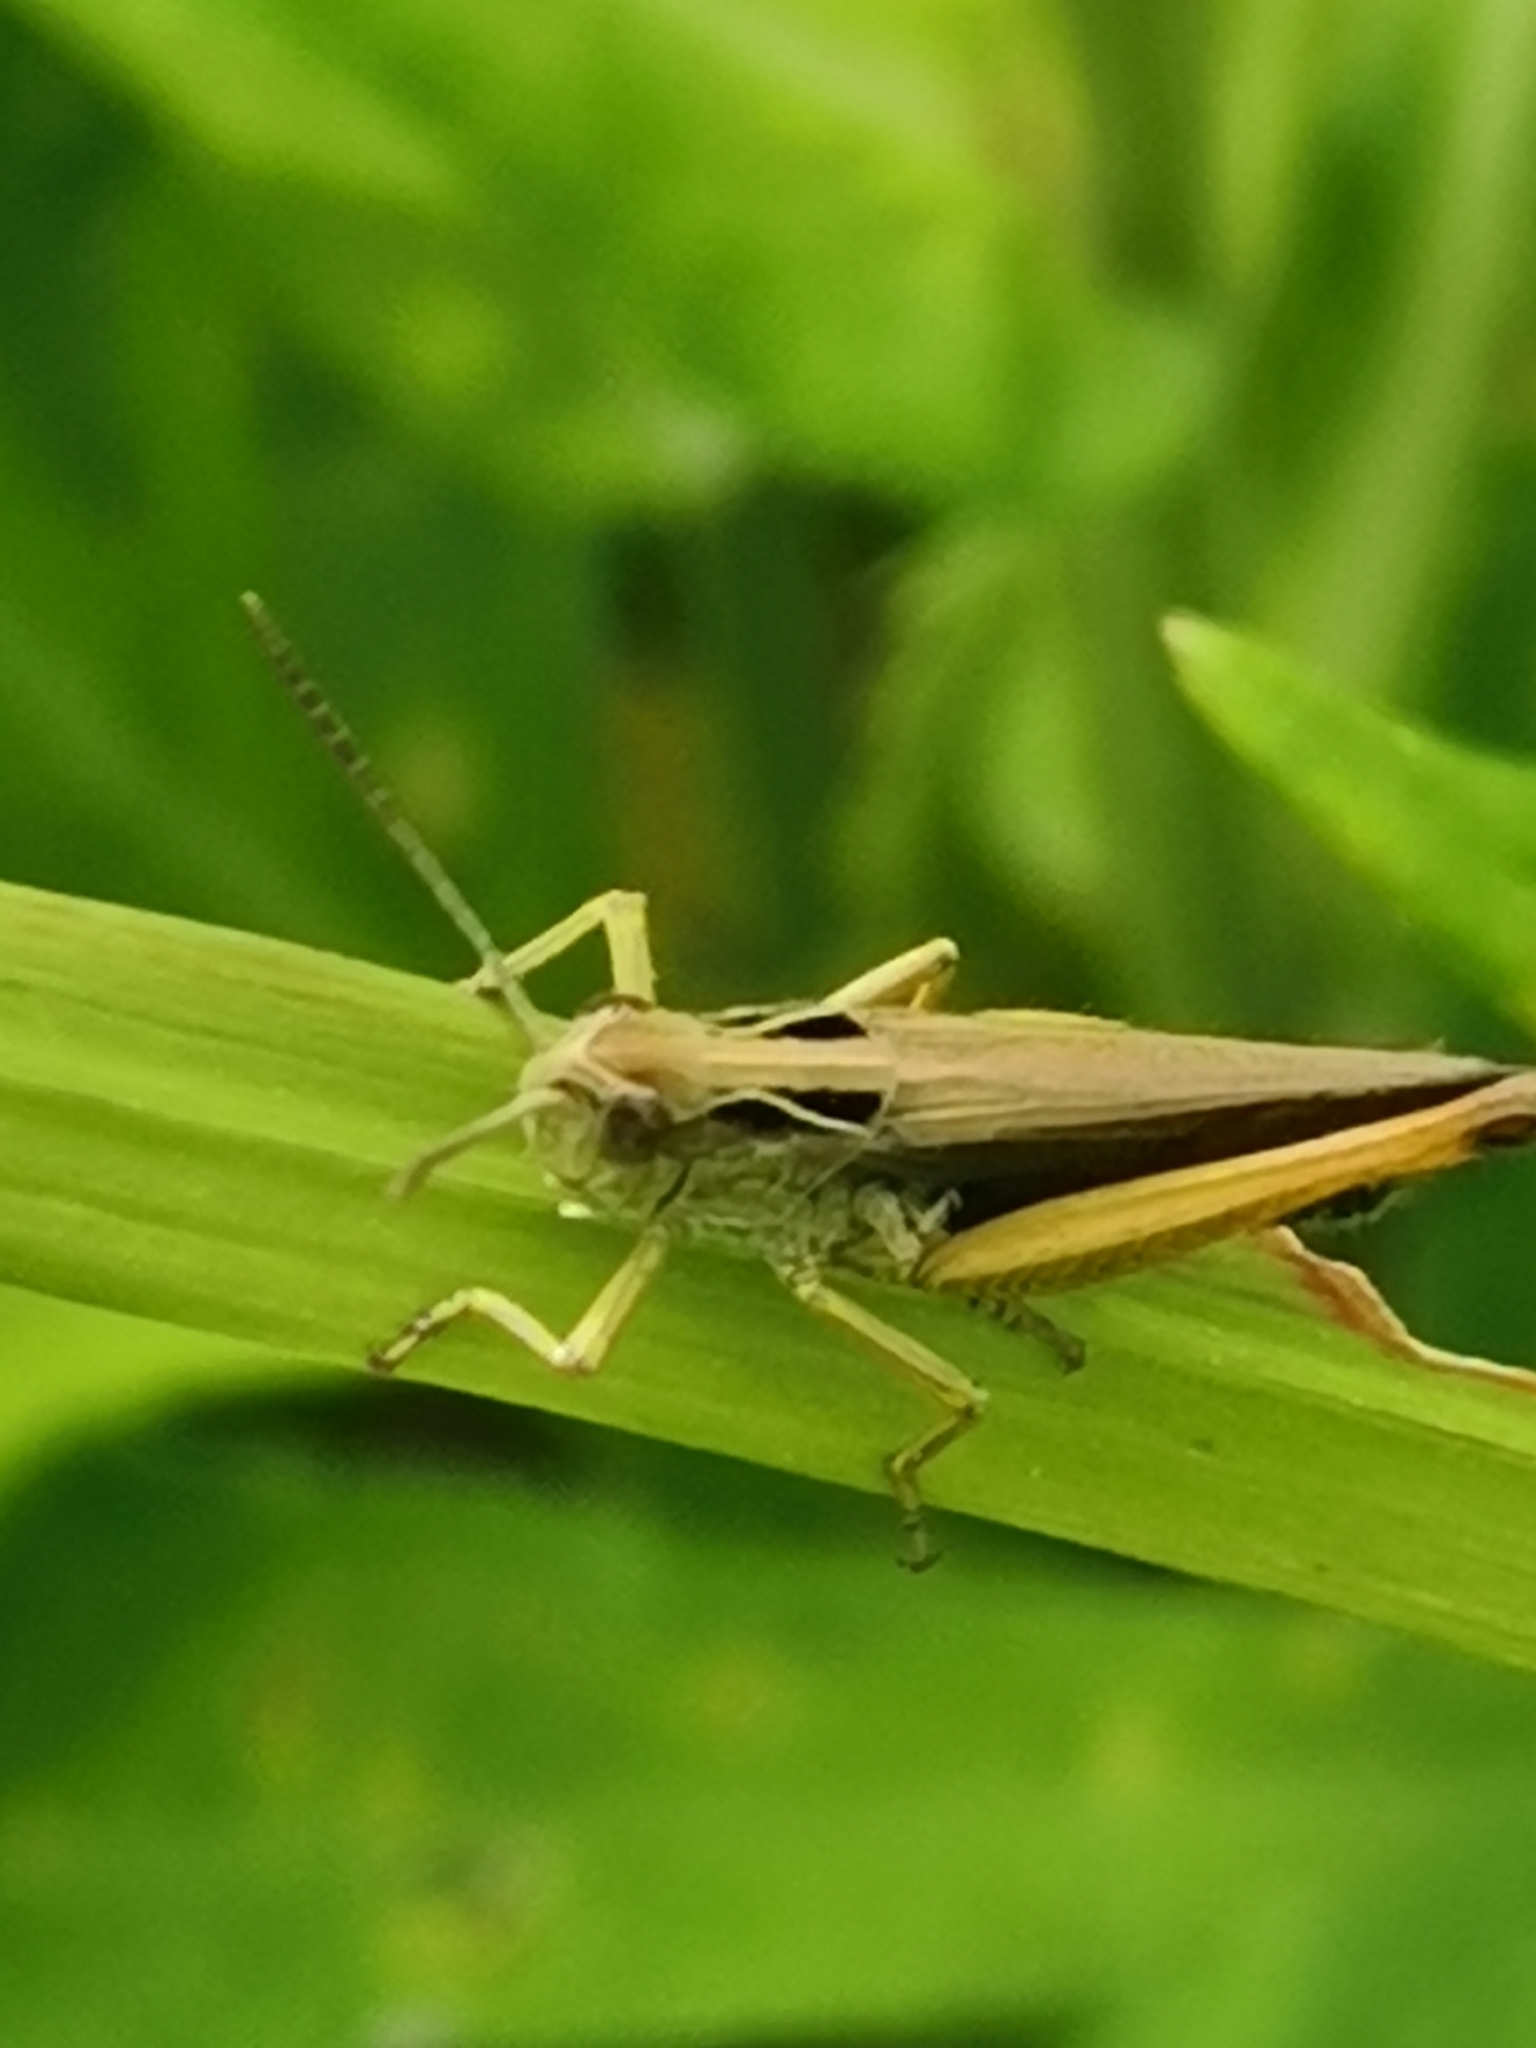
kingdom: Animalia
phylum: Arthropoda
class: Insecta
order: Orthoptera
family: Acrididae
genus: Omocestus
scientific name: Omocestus viridulus
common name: Common green grasshopper
